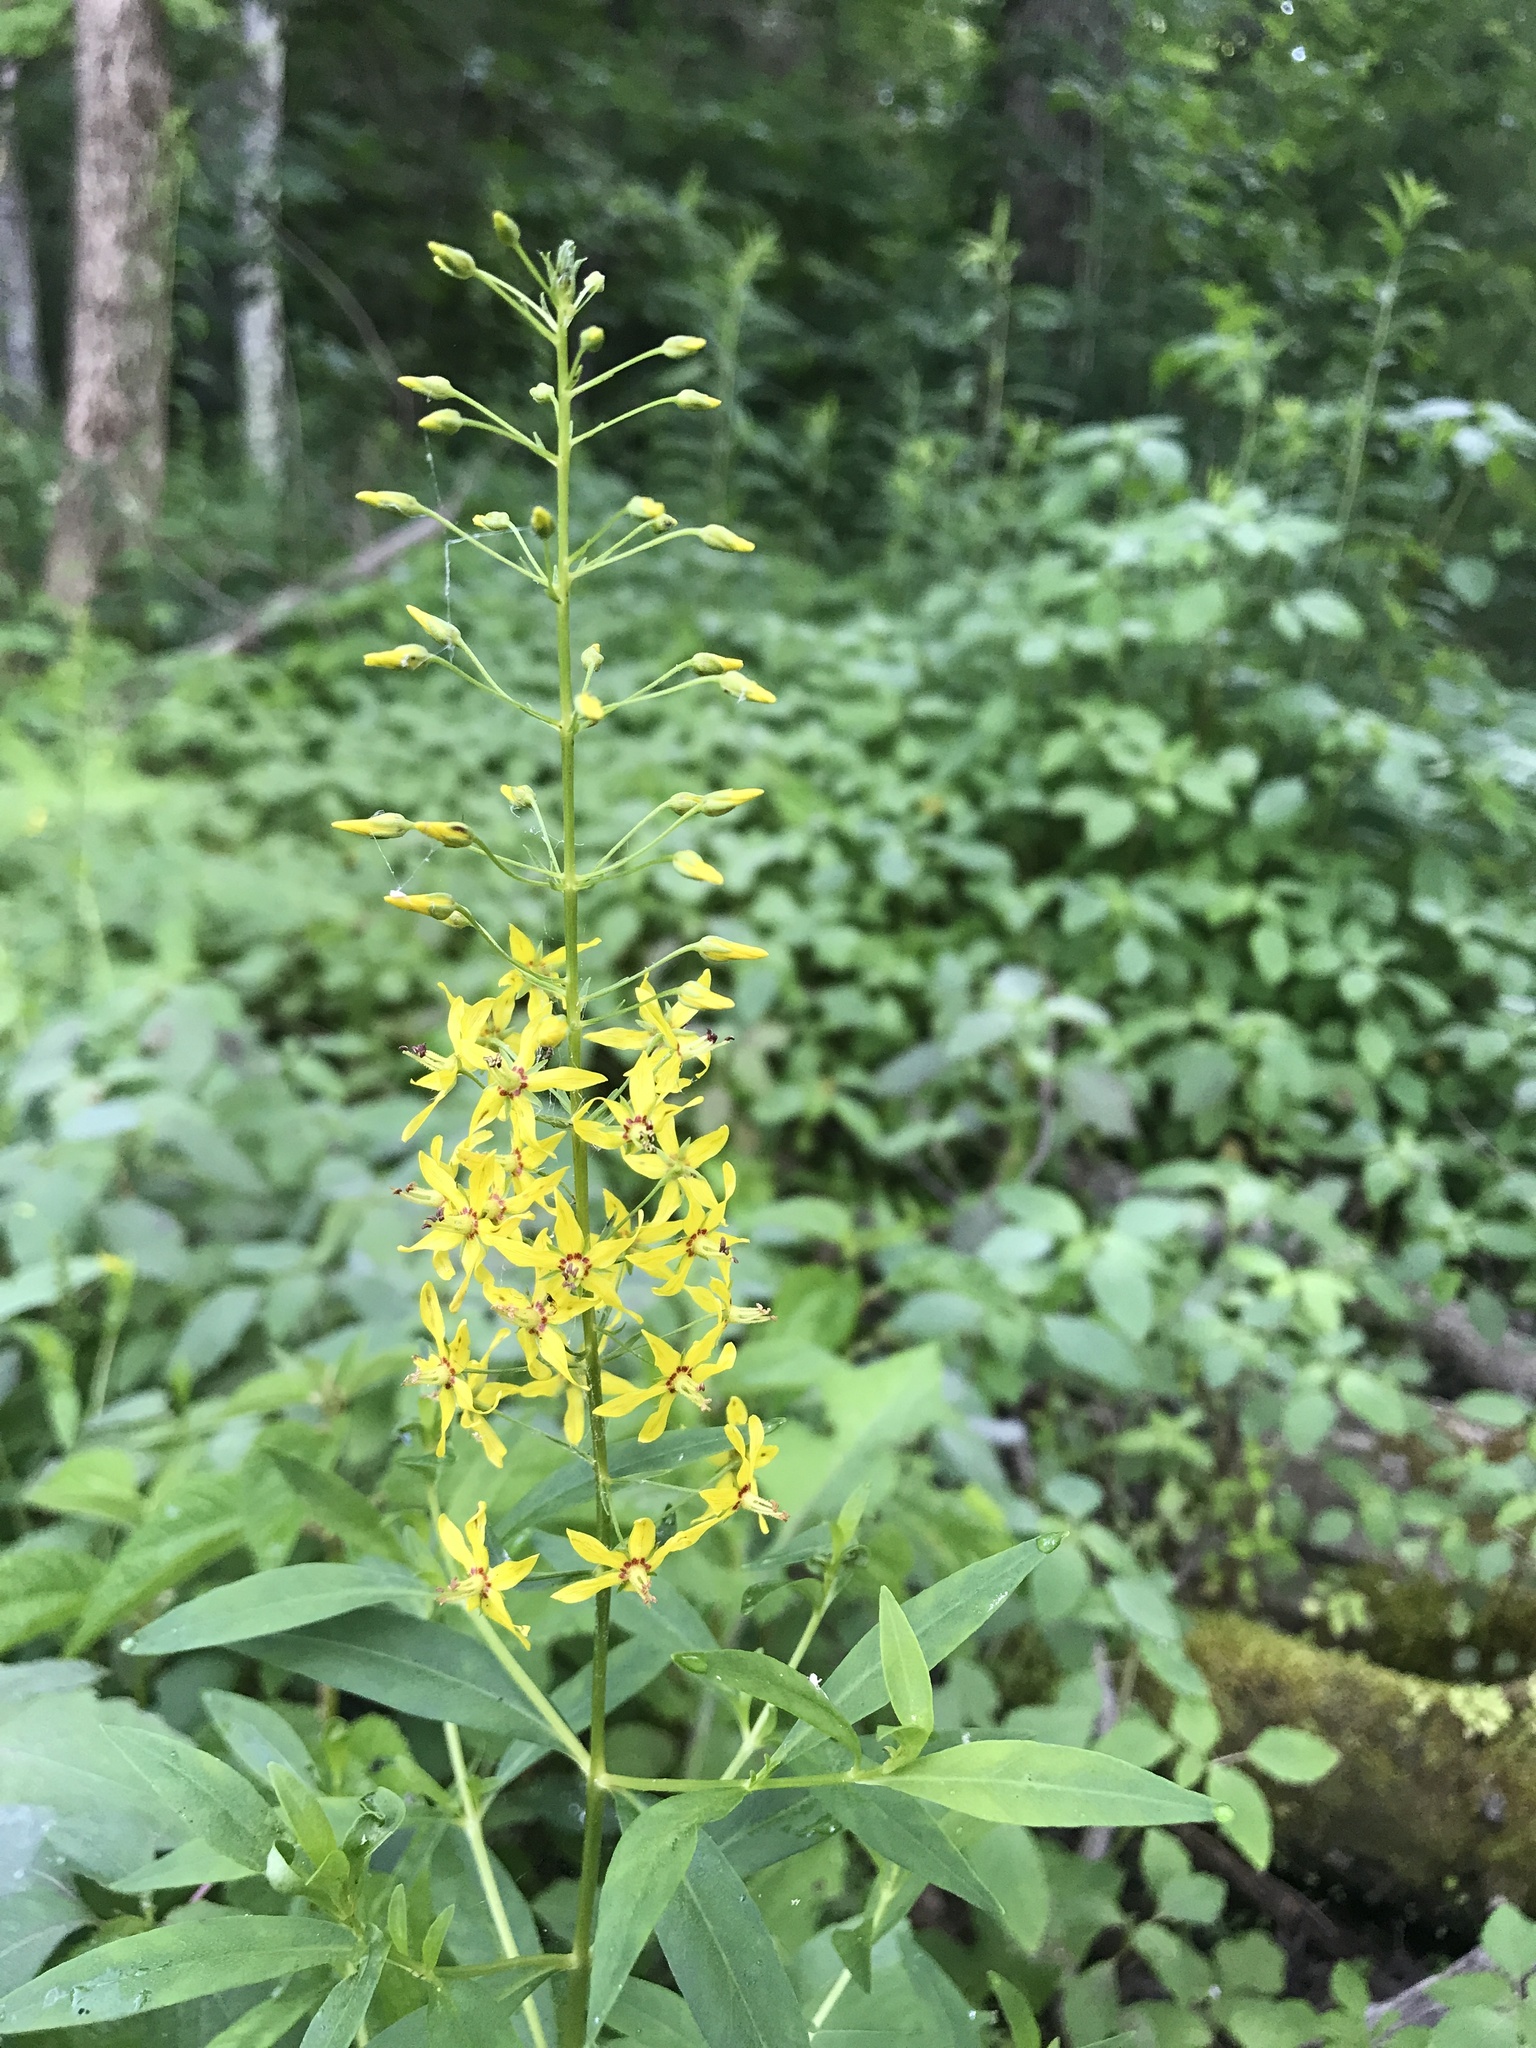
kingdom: Plantae
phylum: Tracheophyta
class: Magnoliopsida
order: Ericales
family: Primulaceae
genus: Lysimachia
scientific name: Lysimachia terrestris
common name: Lake loosestrife
